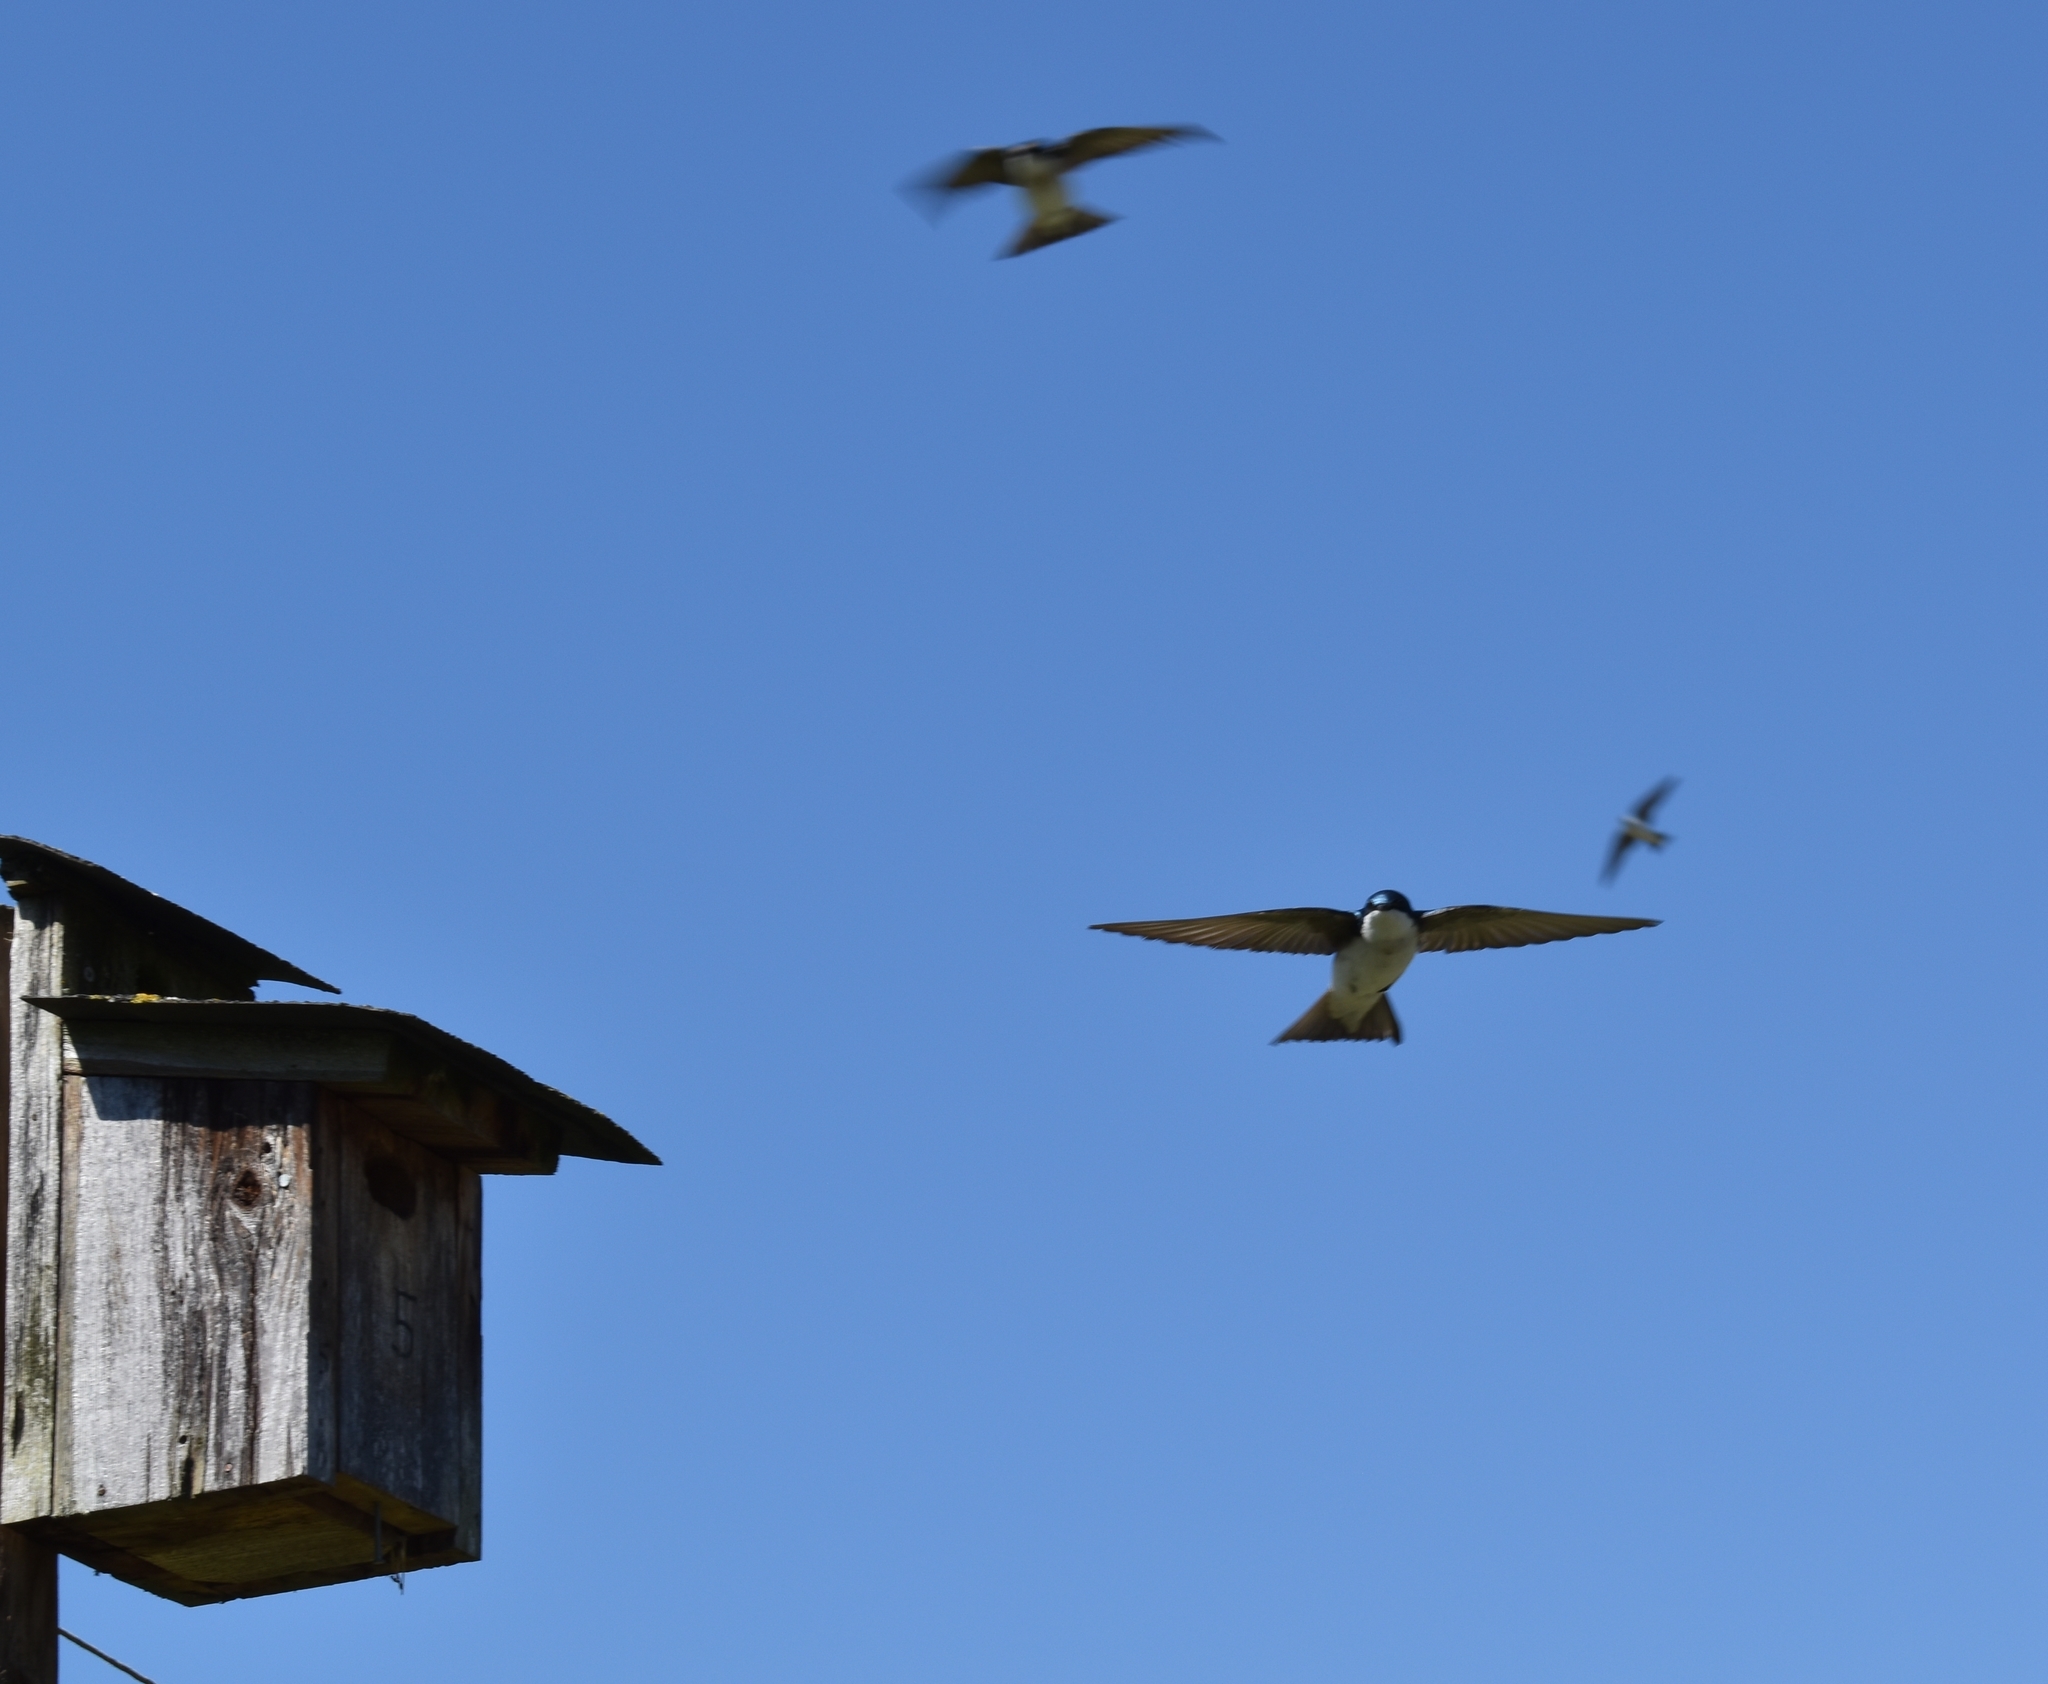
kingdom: Animalia
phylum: Chordata
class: Aves
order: Passeriformes
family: Hirundinidae
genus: Tachycineta
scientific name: Tachycineta bicolor
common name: Tree swallow
